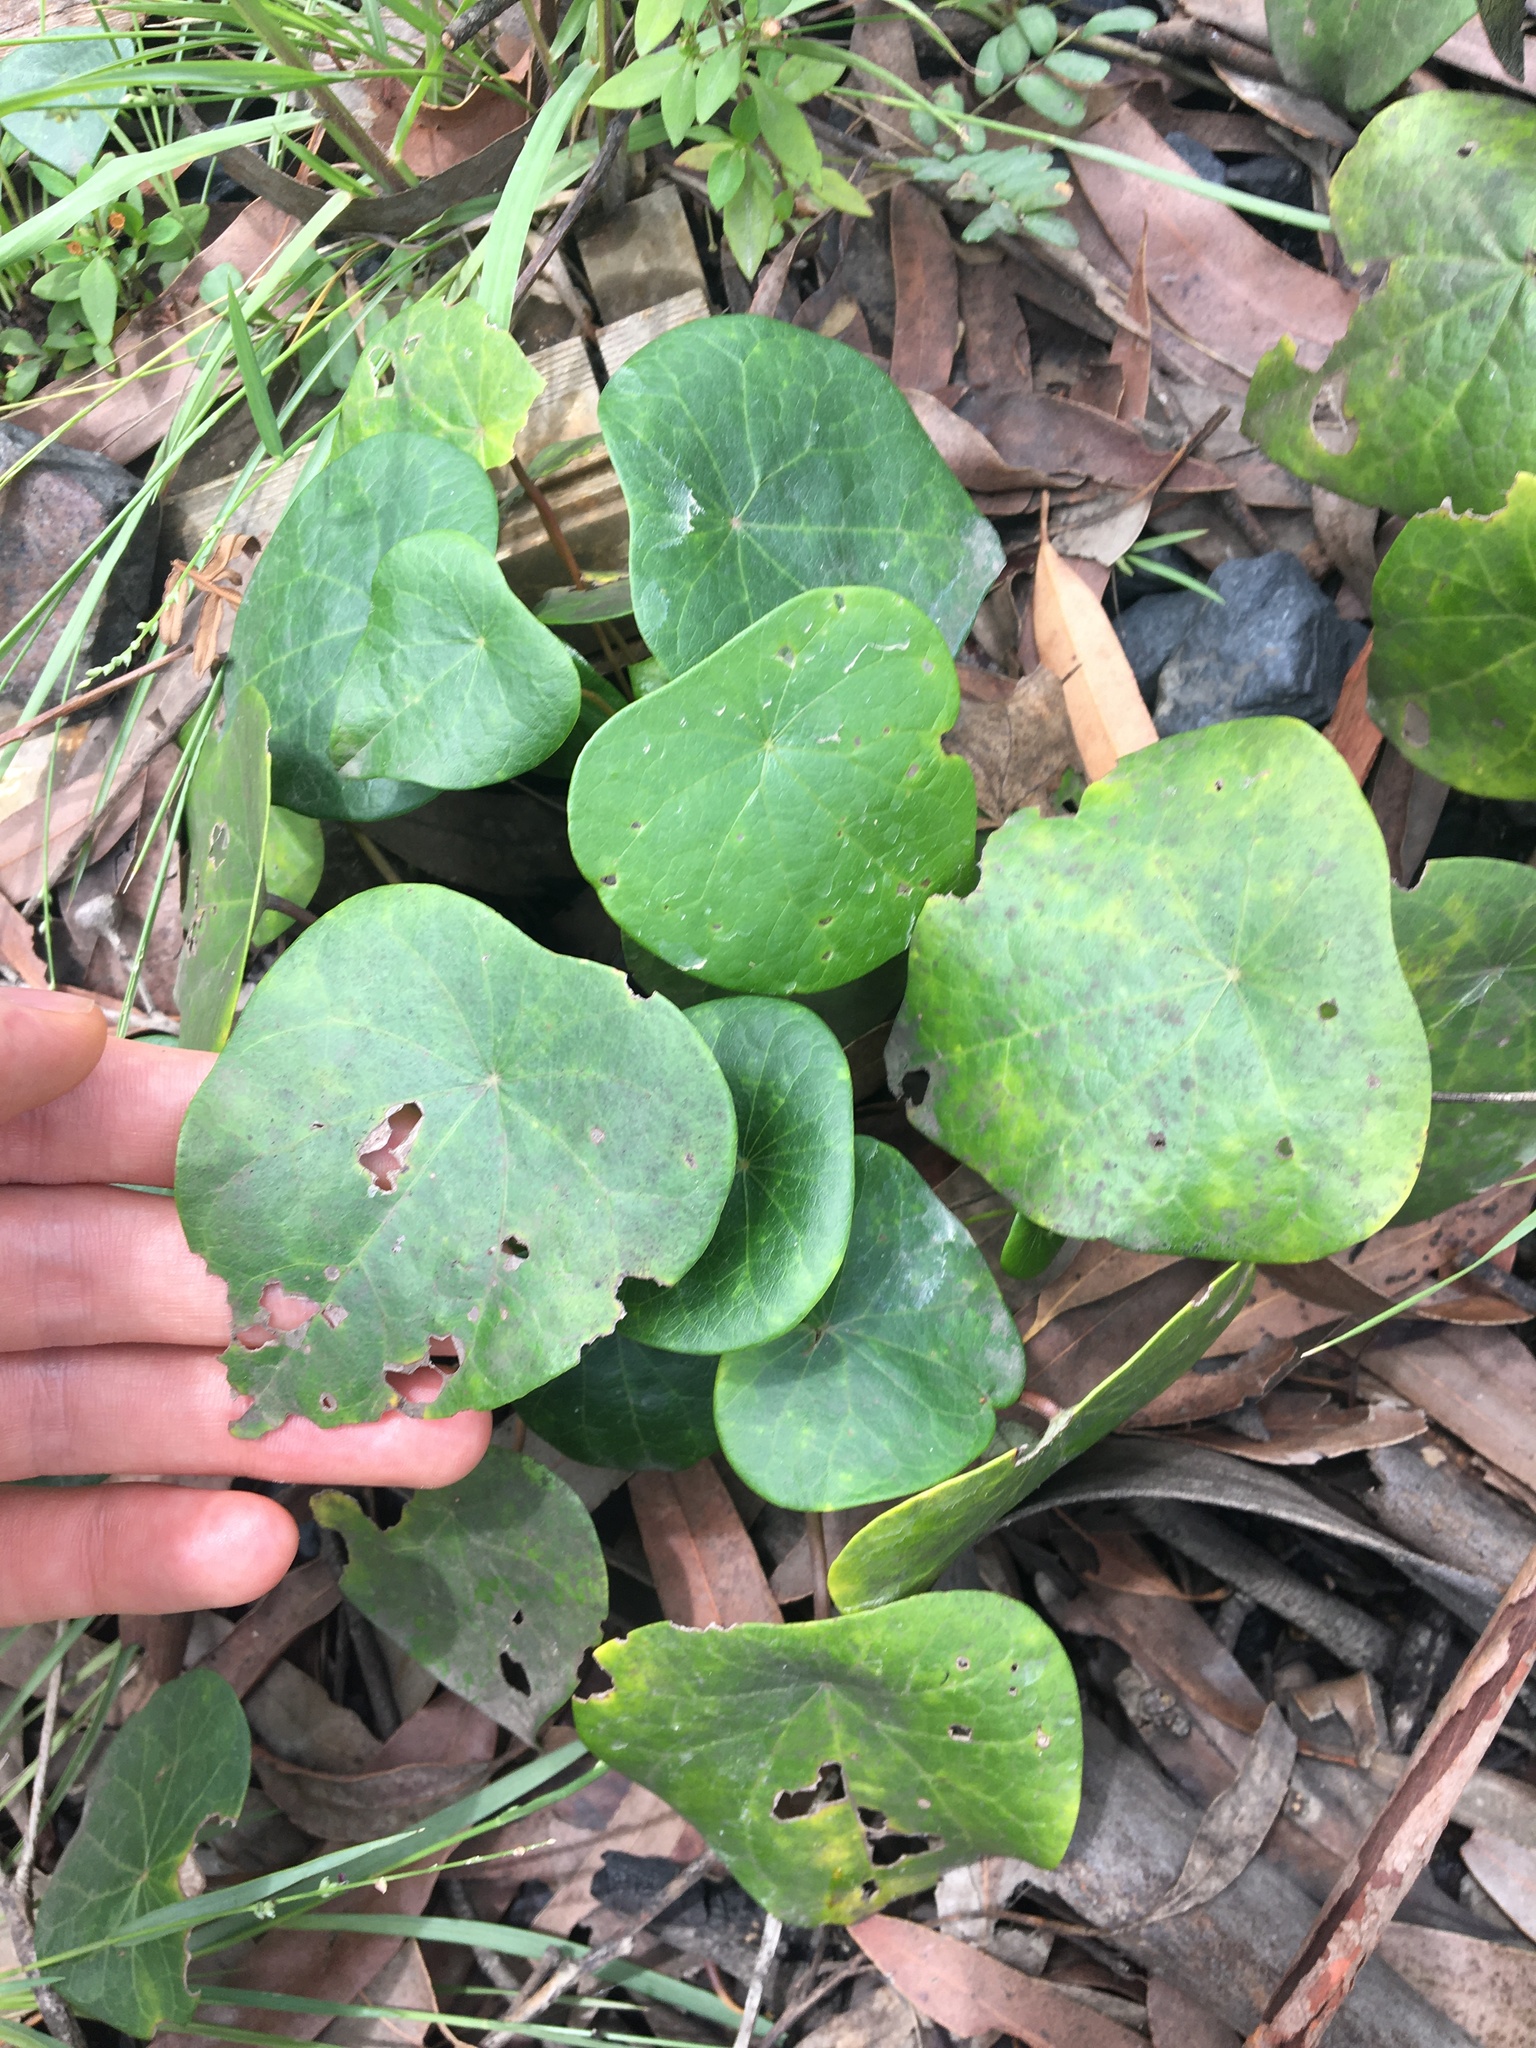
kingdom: Plantae
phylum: Tracheophyta
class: Magnoliopsida
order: Ranunculales
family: Menispermaceae
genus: Stephania
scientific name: Stephania japonica
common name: Snake vine
